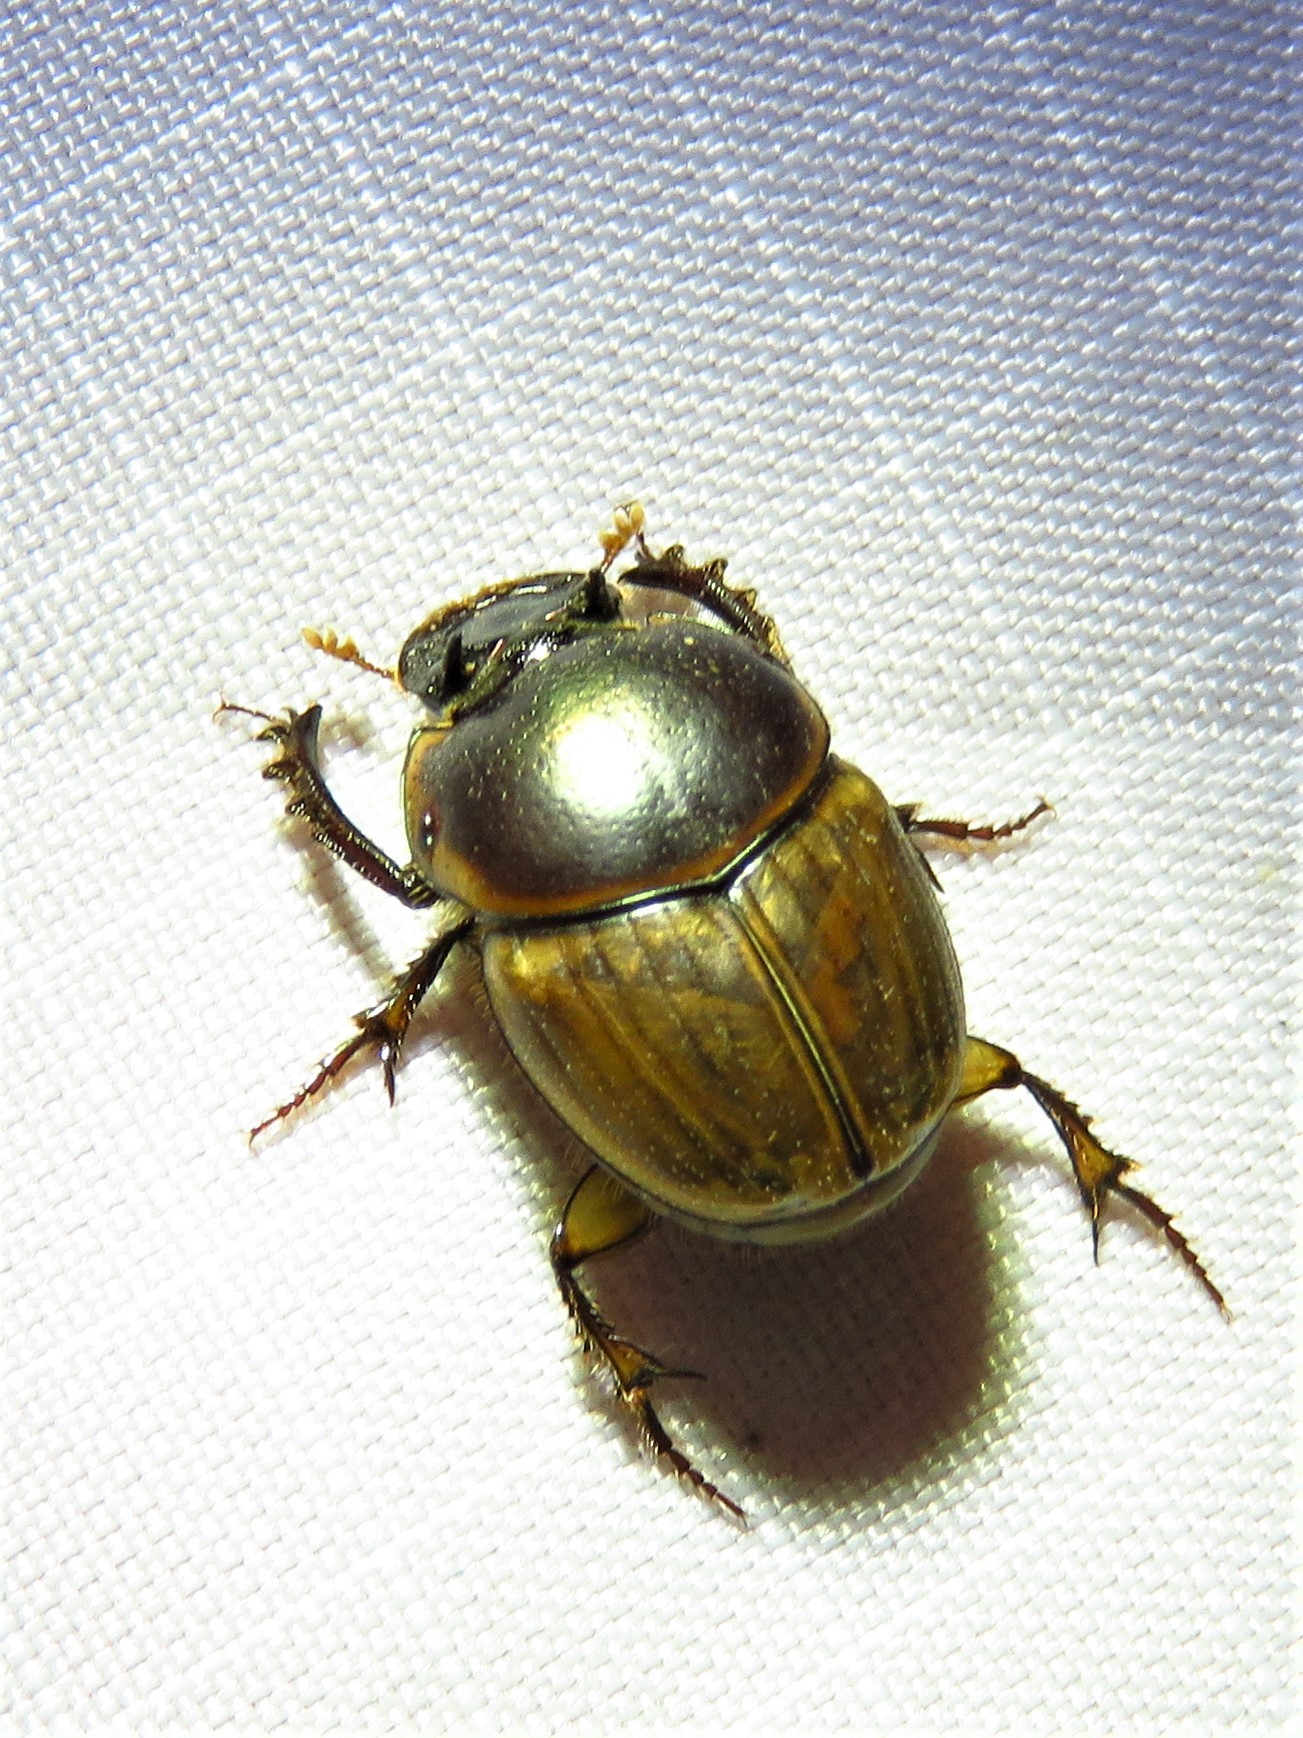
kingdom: Animalia
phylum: Arthropoda
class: Insecta
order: Coleoptera
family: Scarabaeidae
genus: Digitonthophagus
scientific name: Digitonthophagus gazella
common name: Brown dung beetle
